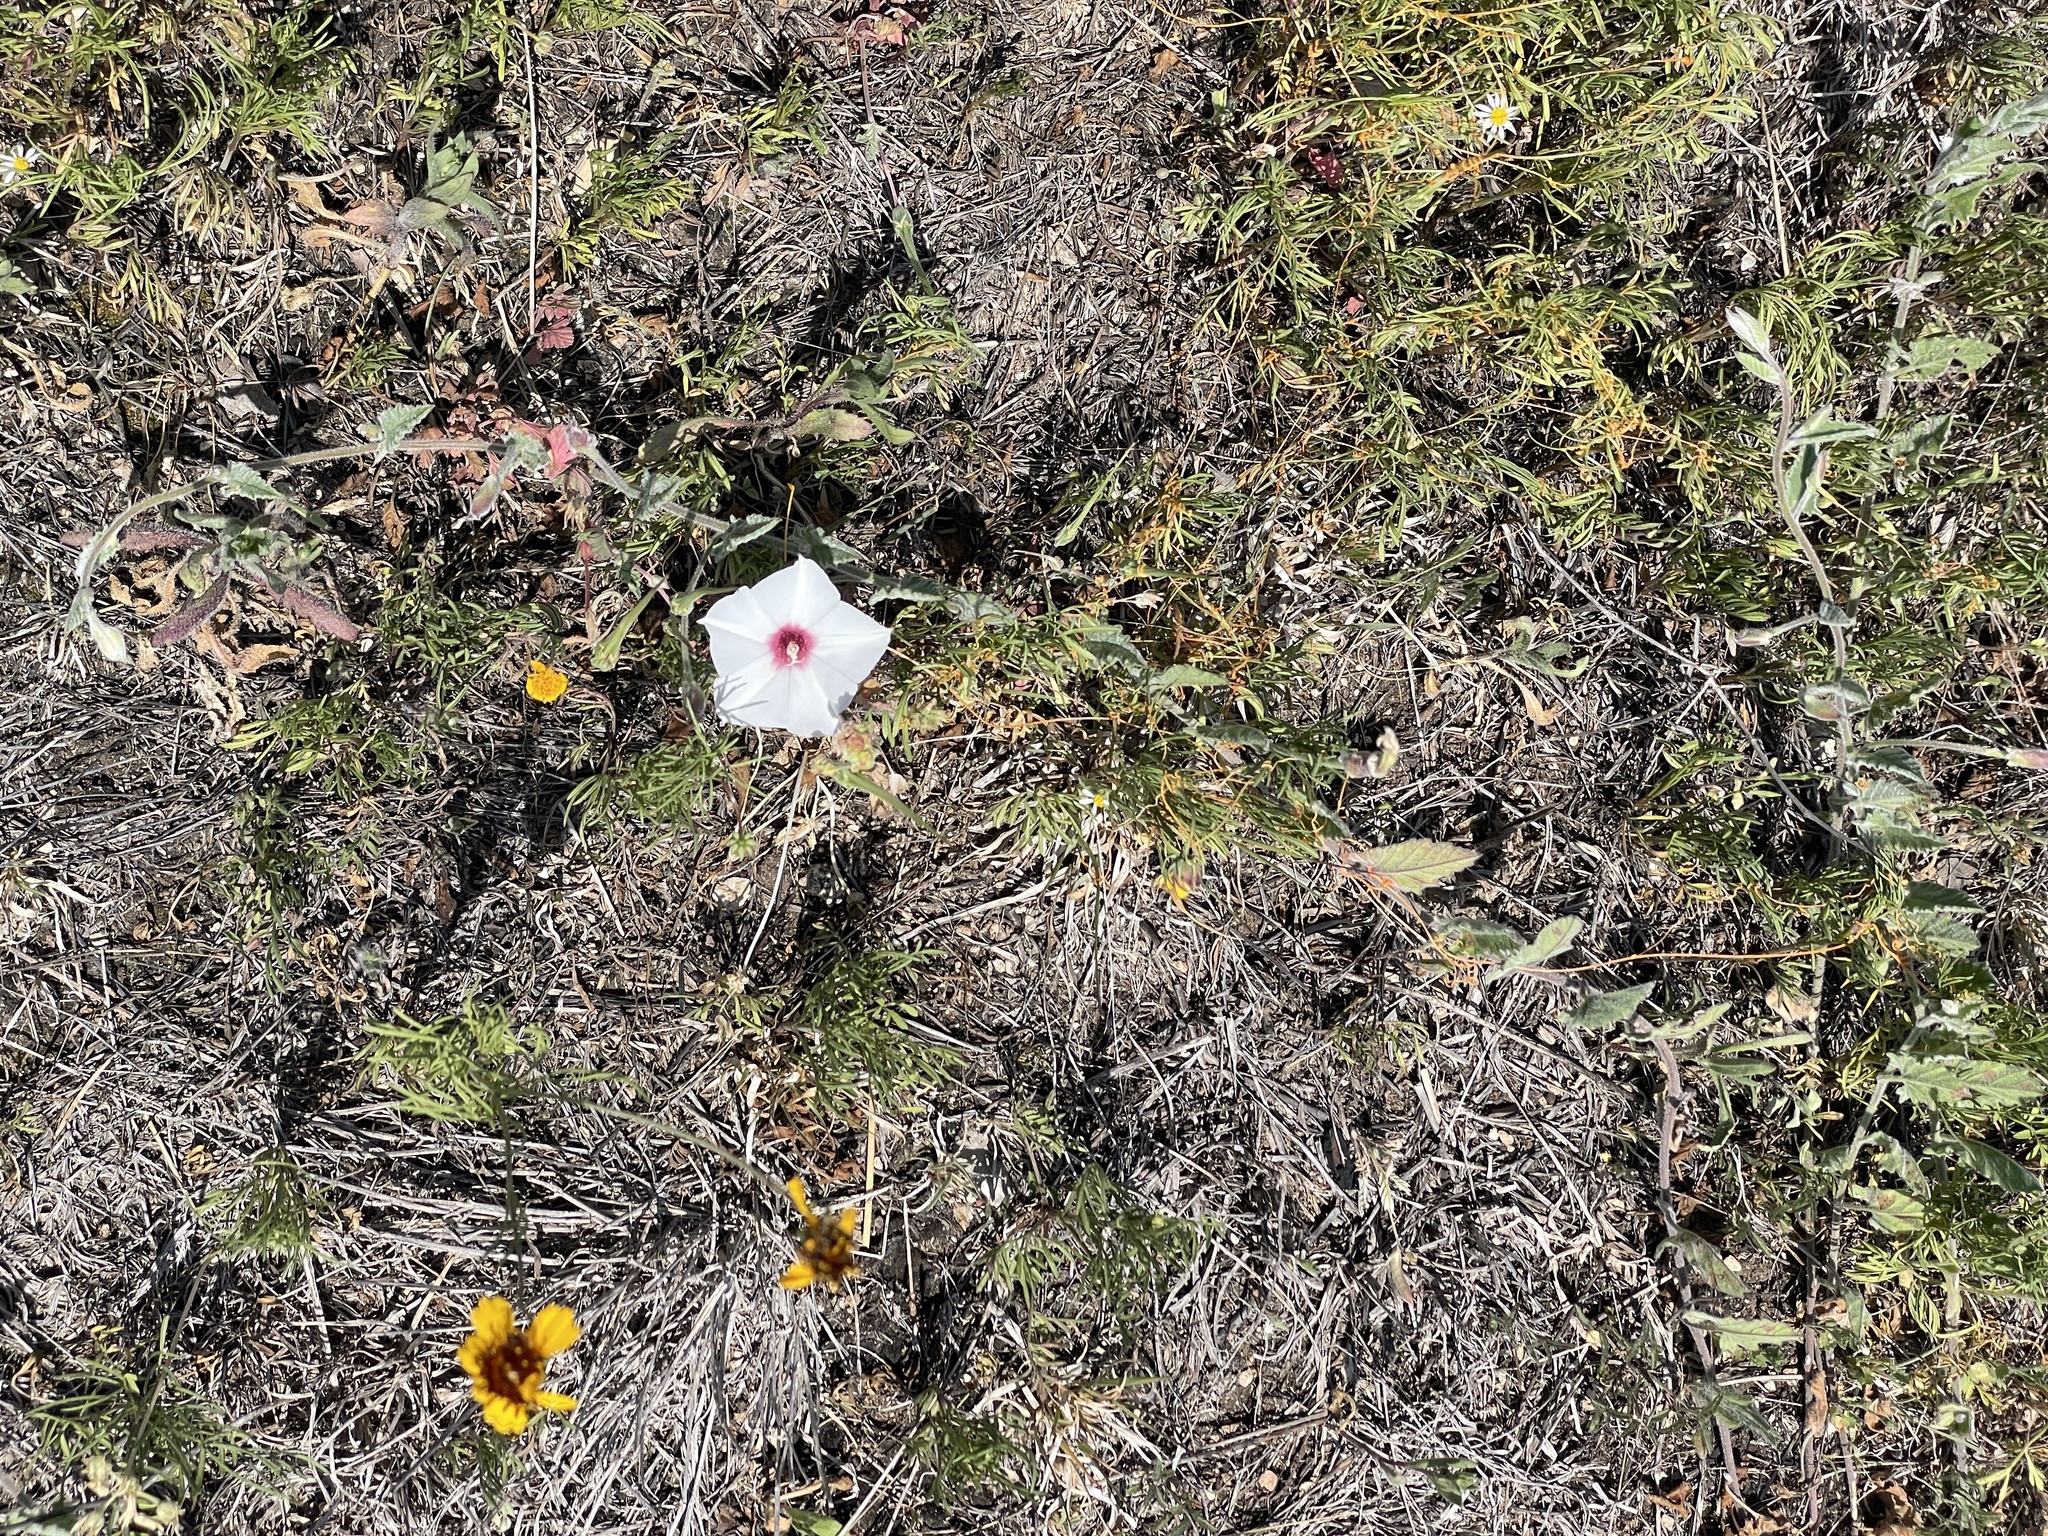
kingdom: Plantae
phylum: Tracheophyta
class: Magnoliopsida
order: Solanales
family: Convolvulaceae
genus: Convolvulus
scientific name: Convolvulus equitans
